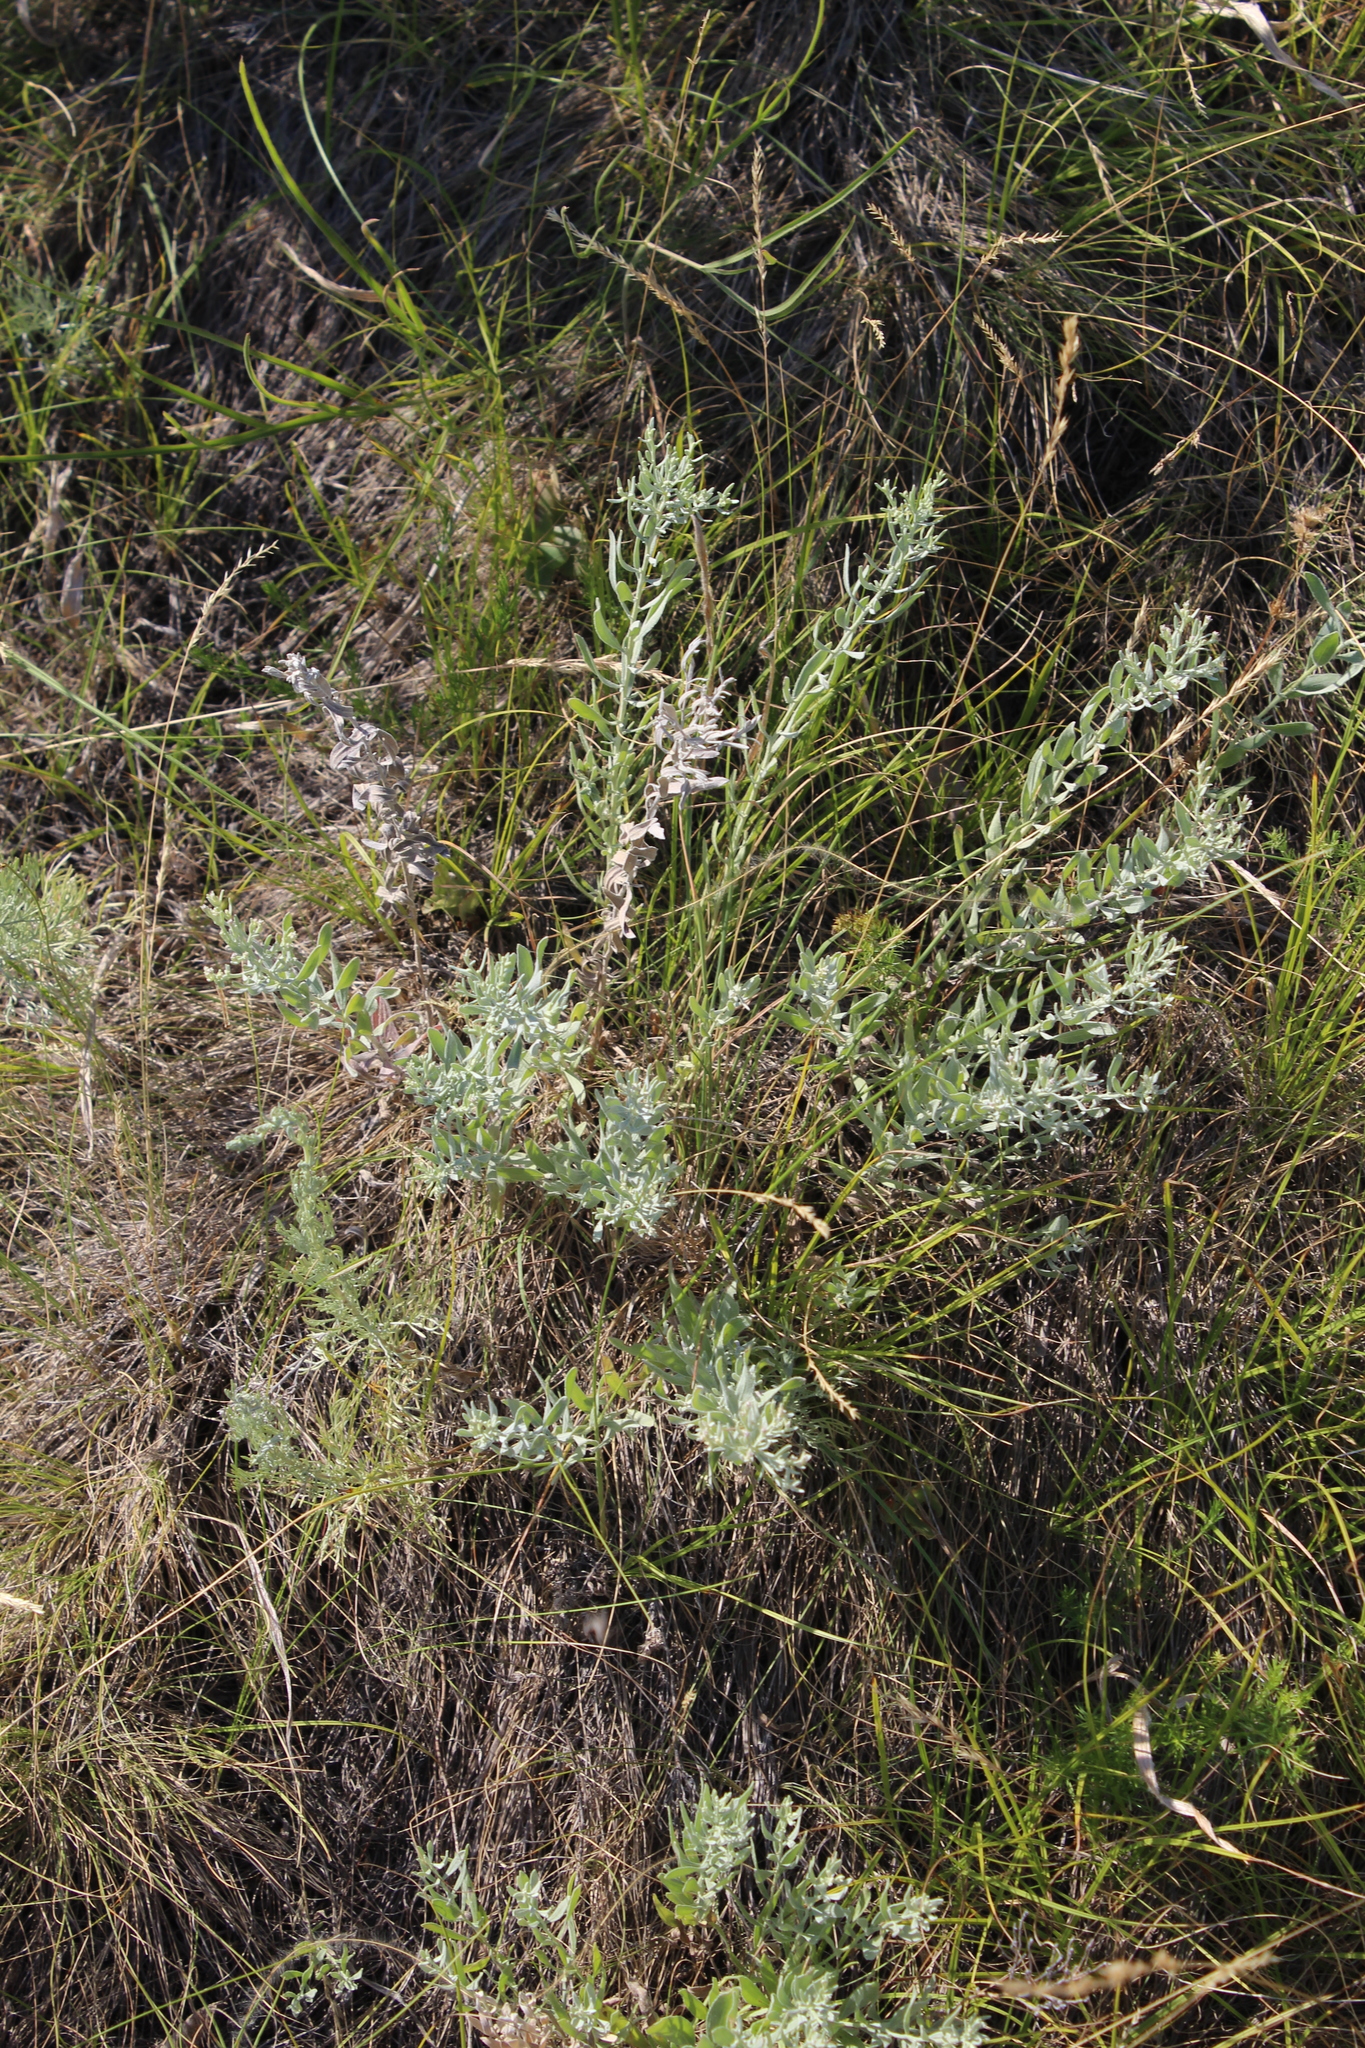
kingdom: Plantae
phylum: Tracheophyta
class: Magnoliopsida
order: Asterales
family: Asteraceae
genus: Galatella
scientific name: Galatella villosa
